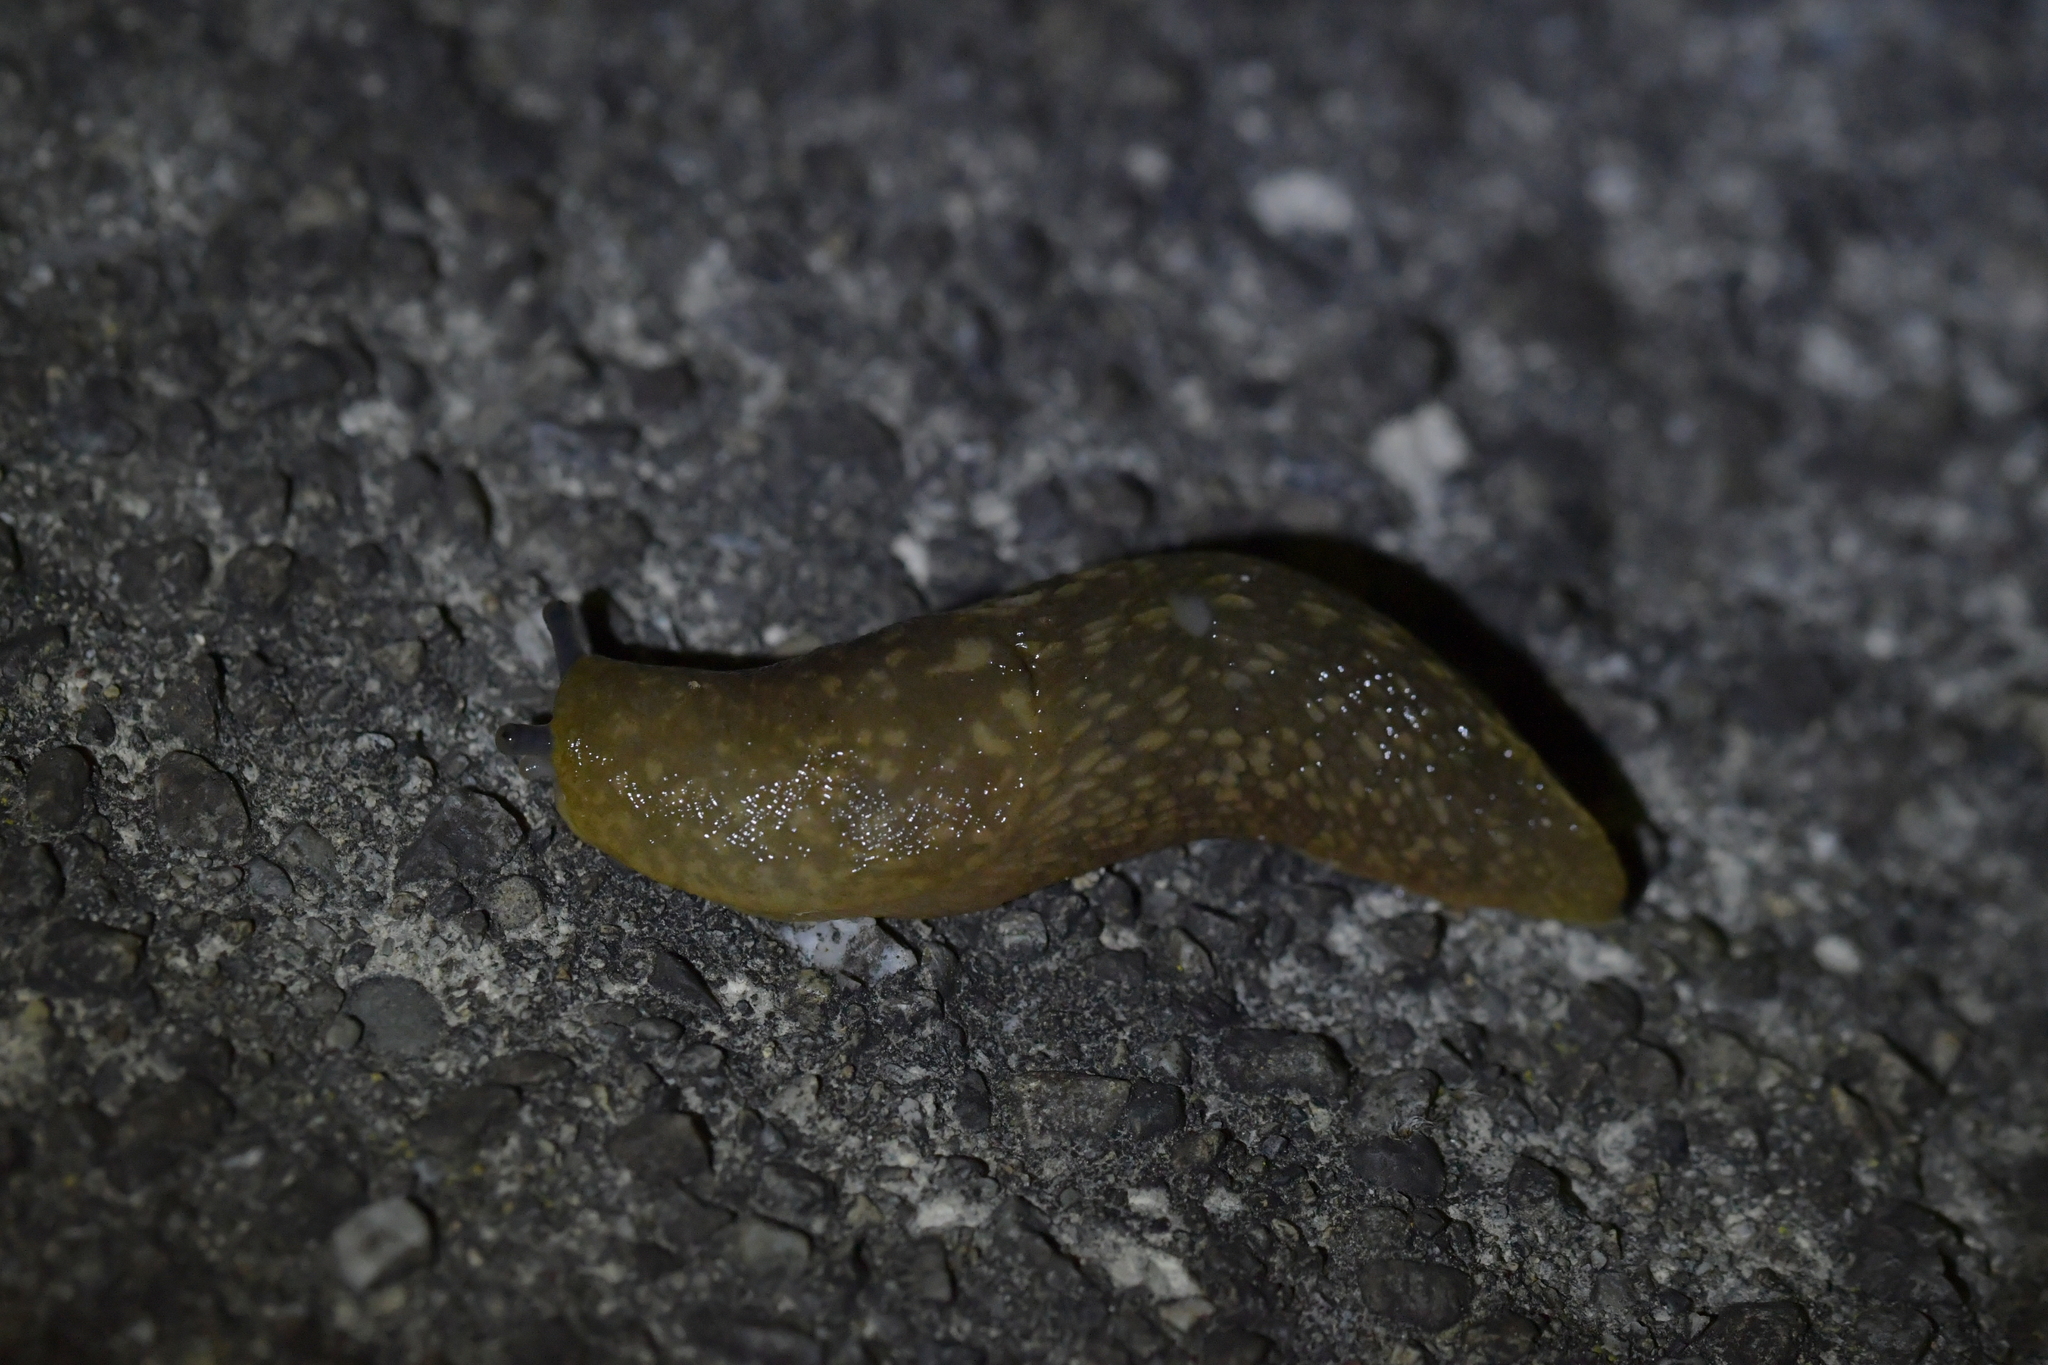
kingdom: Animalia
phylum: Mollusca
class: Gastropoda
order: Stylommatophora
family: Limacidae
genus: Limacus
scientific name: Limacus flavus
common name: Yellow gardenslug
